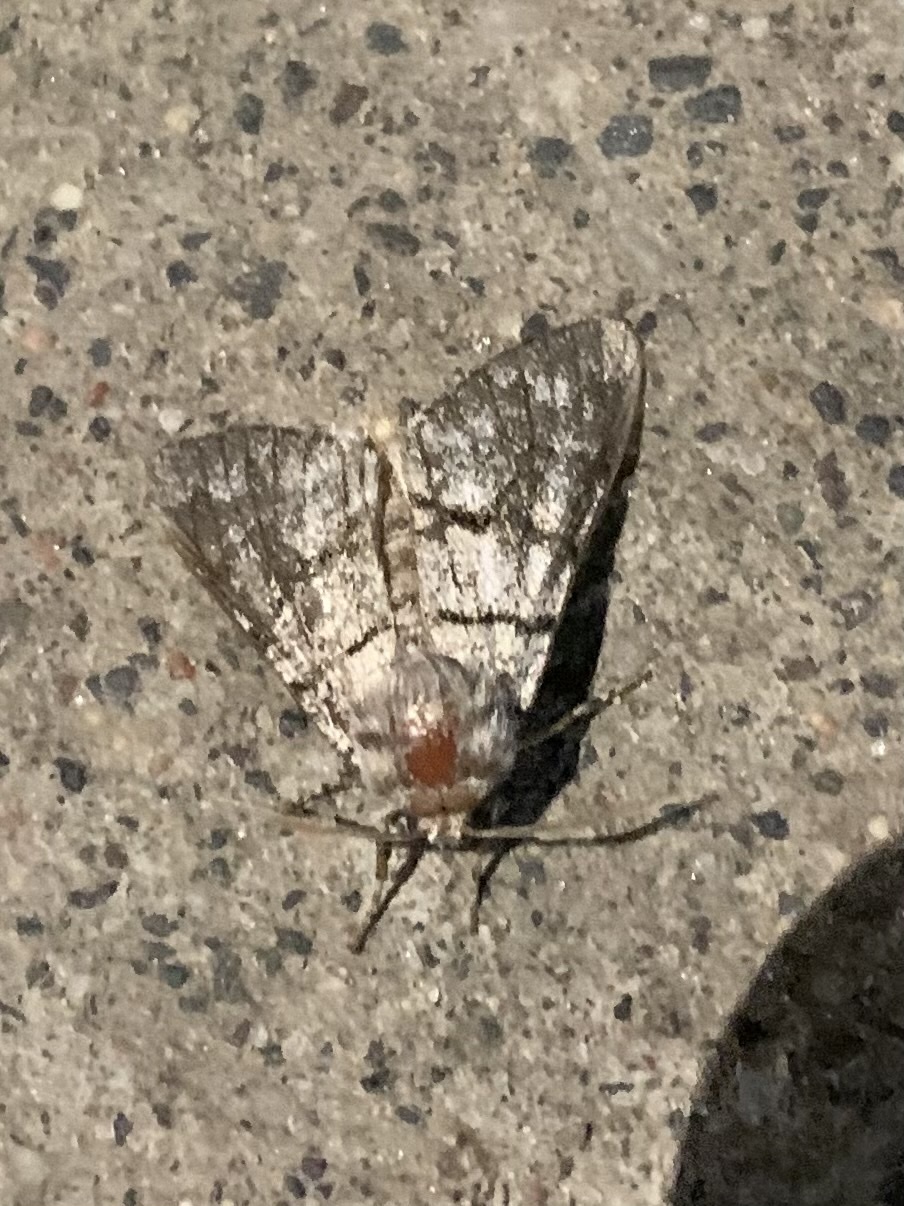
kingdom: Animalia
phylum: Arthropoda
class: Insecta
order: Lepidoptera
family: Noctuidae
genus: Panthea
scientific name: Panthea furcilla
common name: Eastern panthea moth
